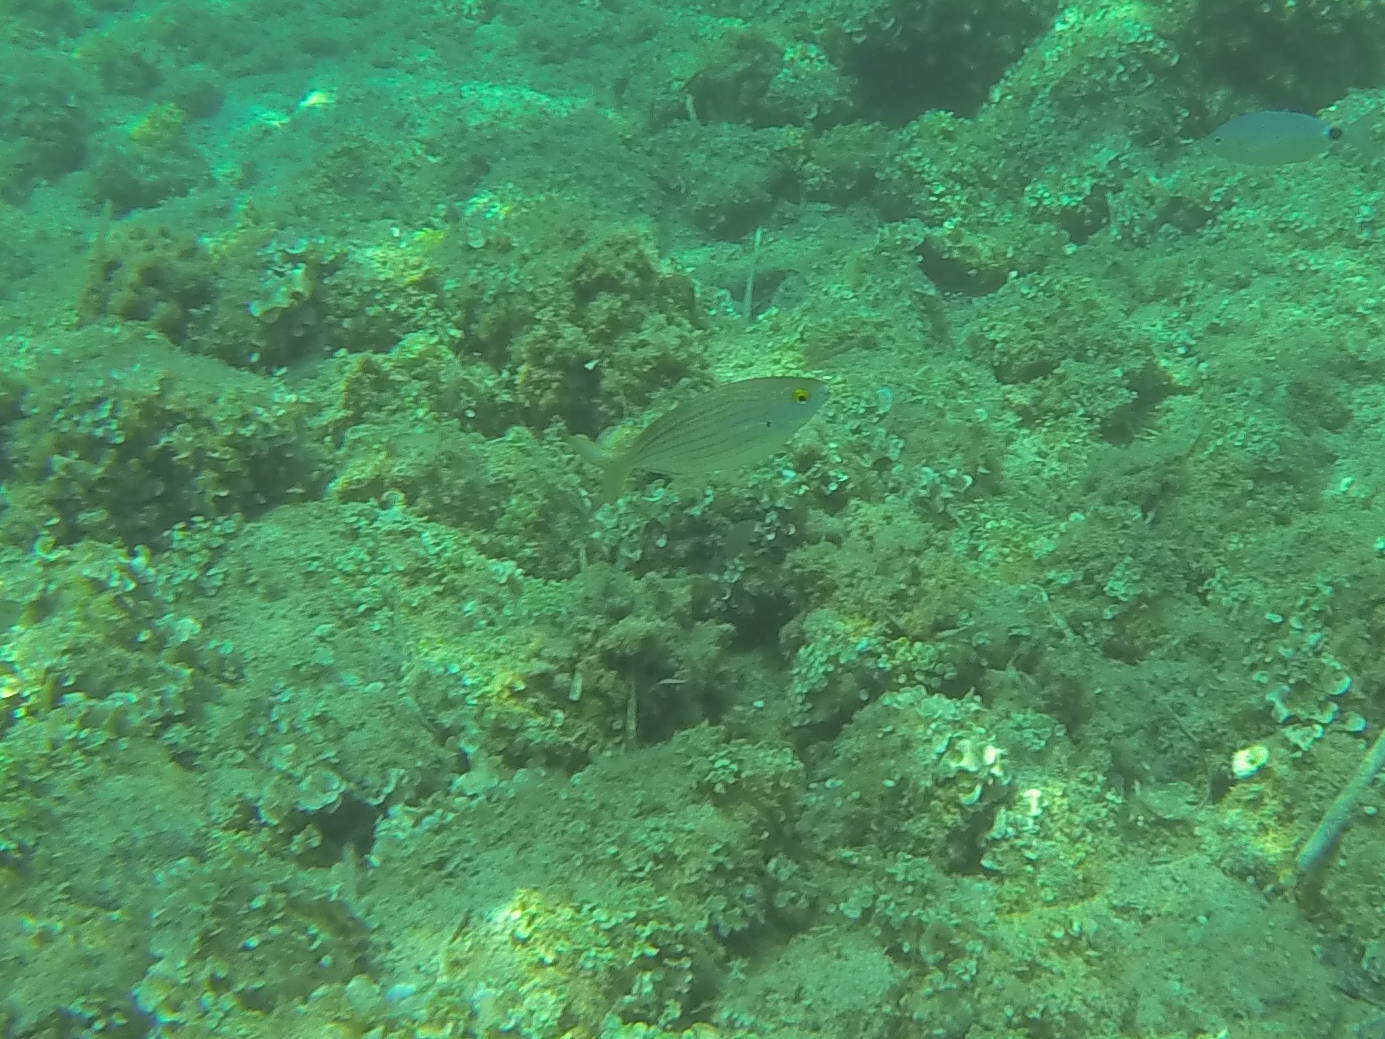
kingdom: Animalia
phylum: Chordata
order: Perciformes
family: Sparidae
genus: Sarpa
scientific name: Sarpa salpa
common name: Salema
